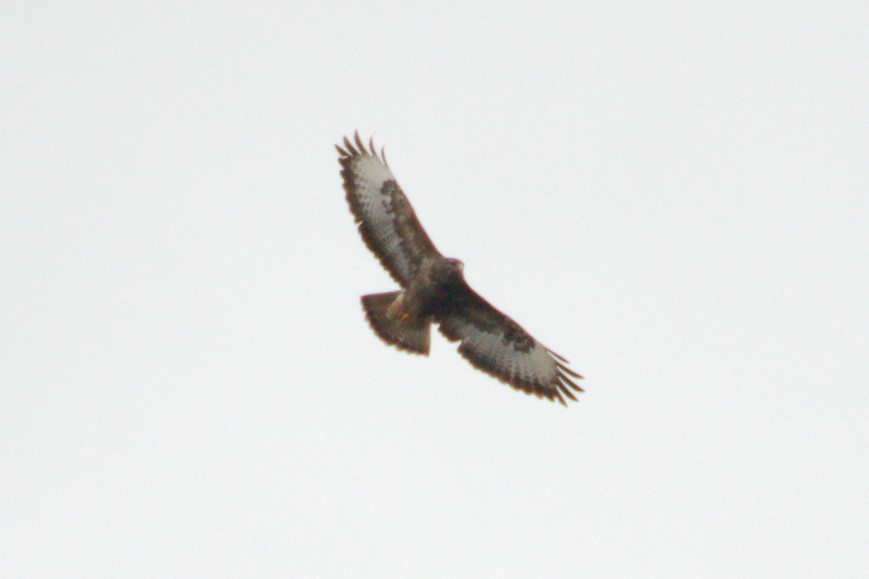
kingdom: Animalia
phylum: Chordata
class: Aves
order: Accipitriformes
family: Accipitridae
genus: Buteo
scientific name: Buteo buteo
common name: Common buzzard
